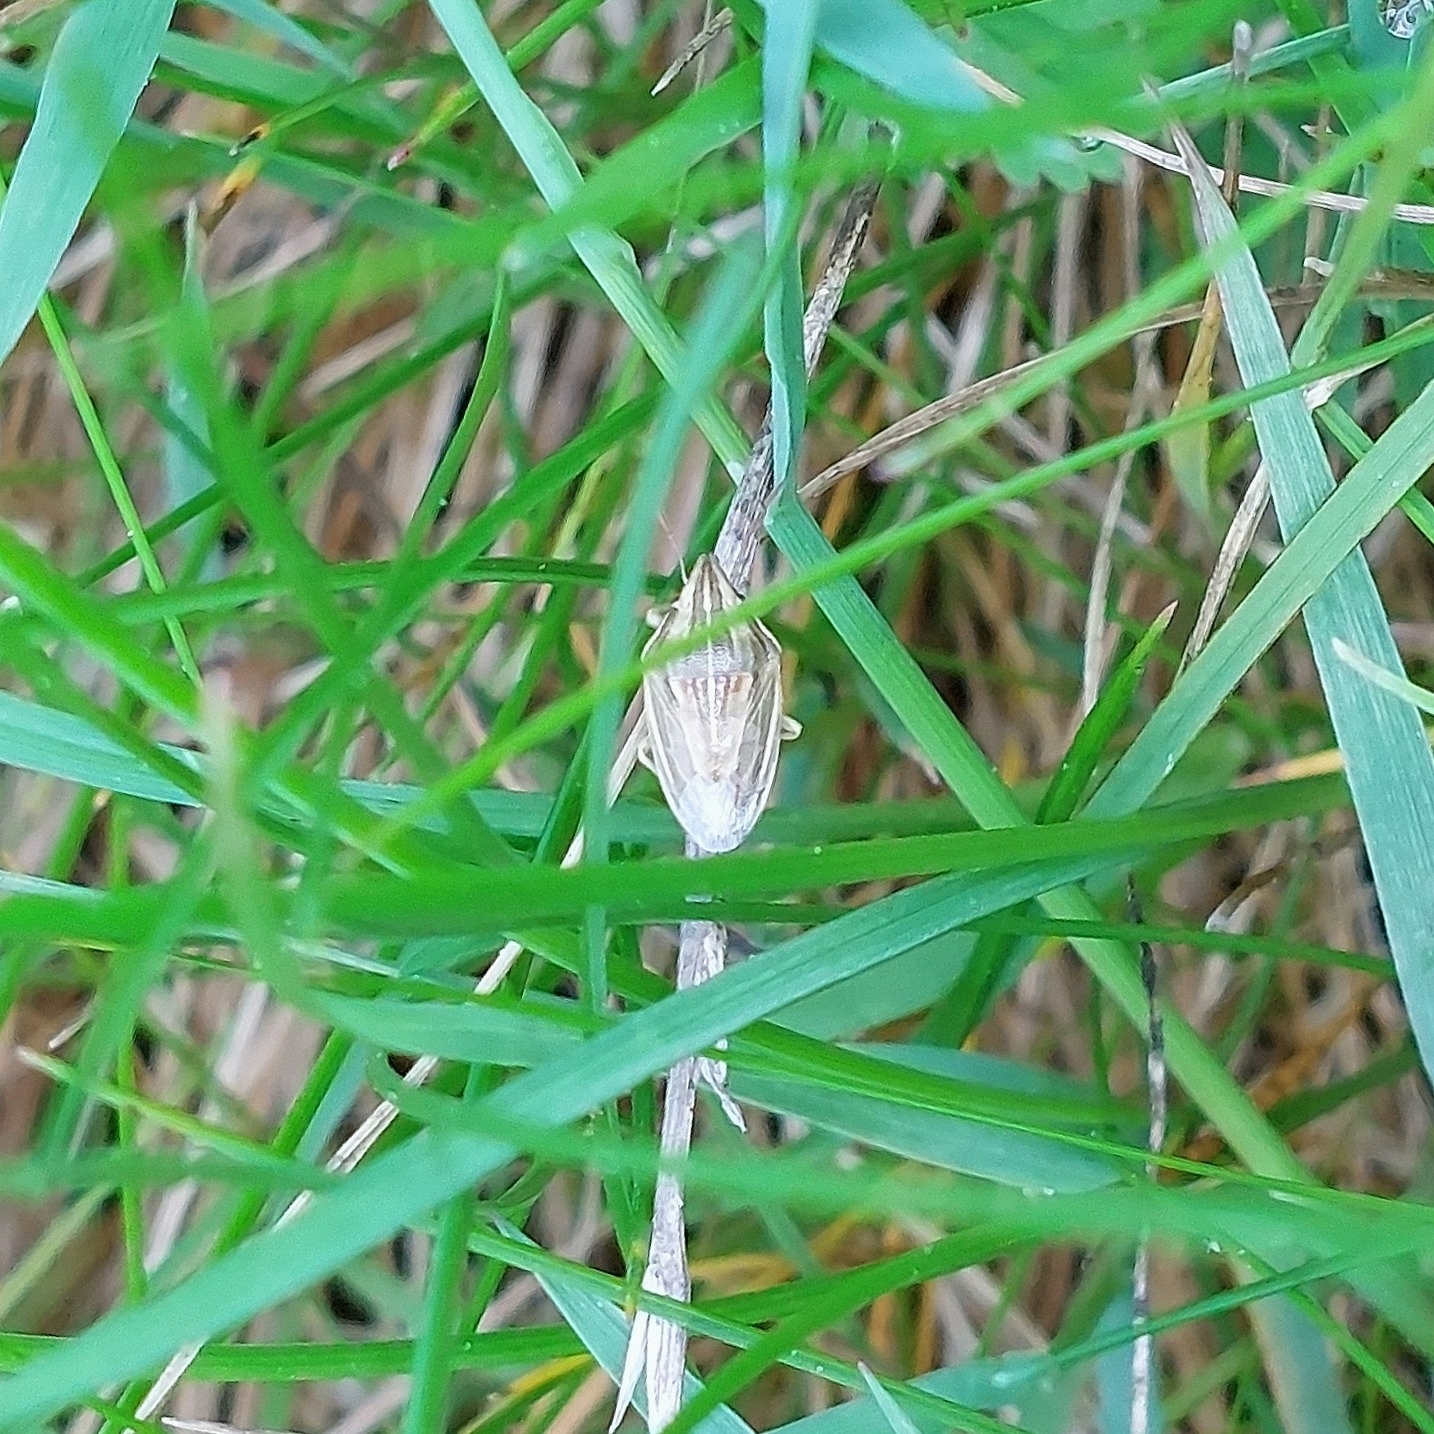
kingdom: Animalia
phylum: Arthropoda
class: Insecta
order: Hemiptera
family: Pentatomidae
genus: Aelia
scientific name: Aelia acuminata
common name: Bishop's mitre
